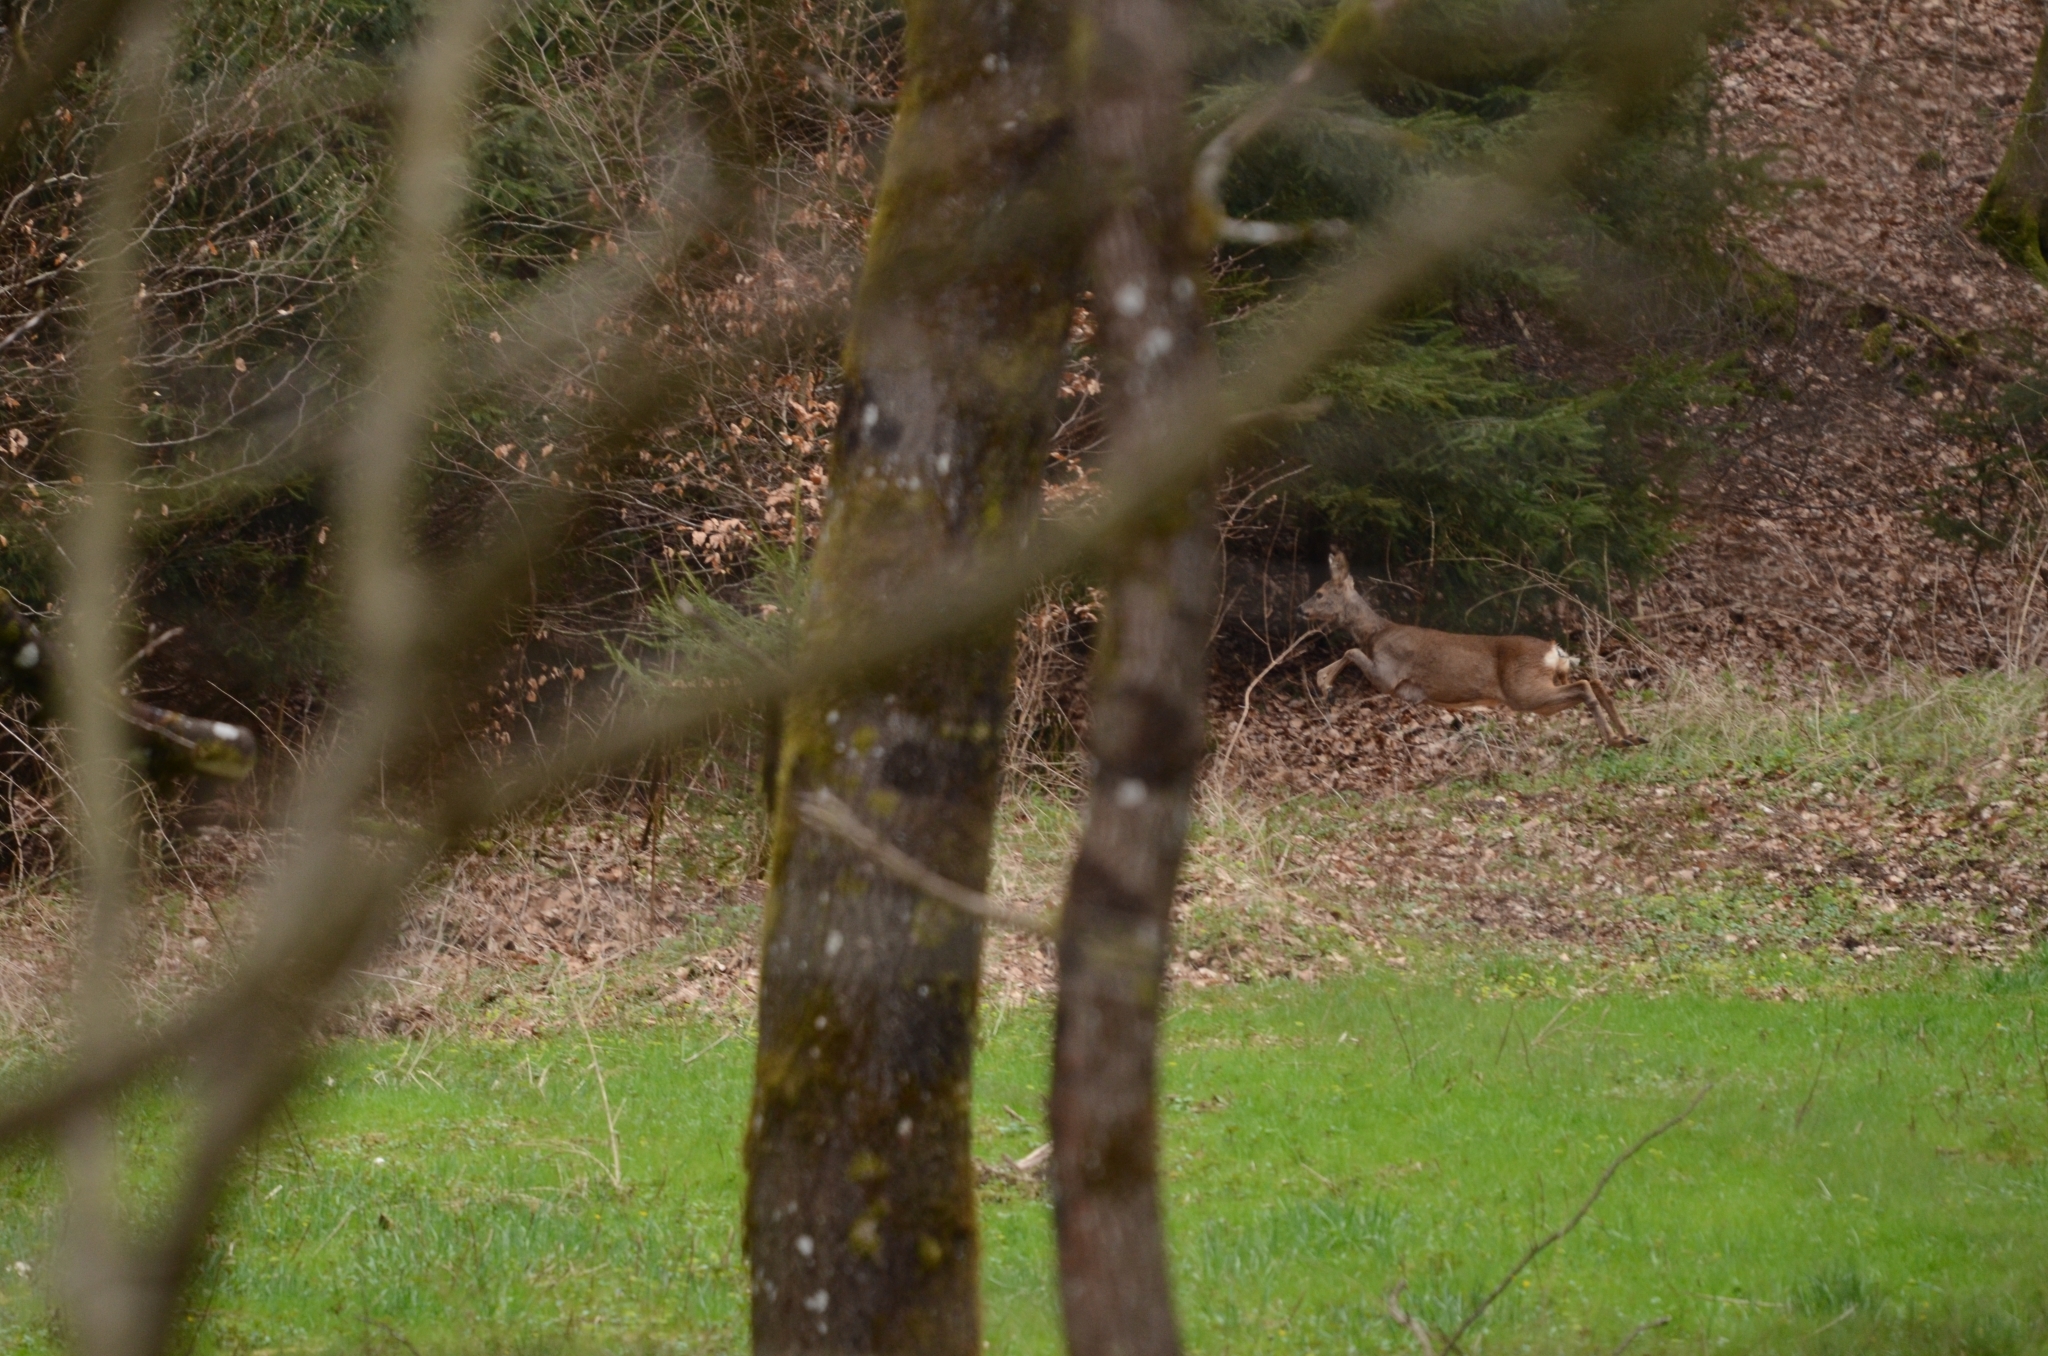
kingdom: Animalia
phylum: Chordata
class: Mammalia
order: Artiodactyla
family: Cervidae
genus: Capreolus
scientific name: Capreolus capreolus
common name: Western roe deer
